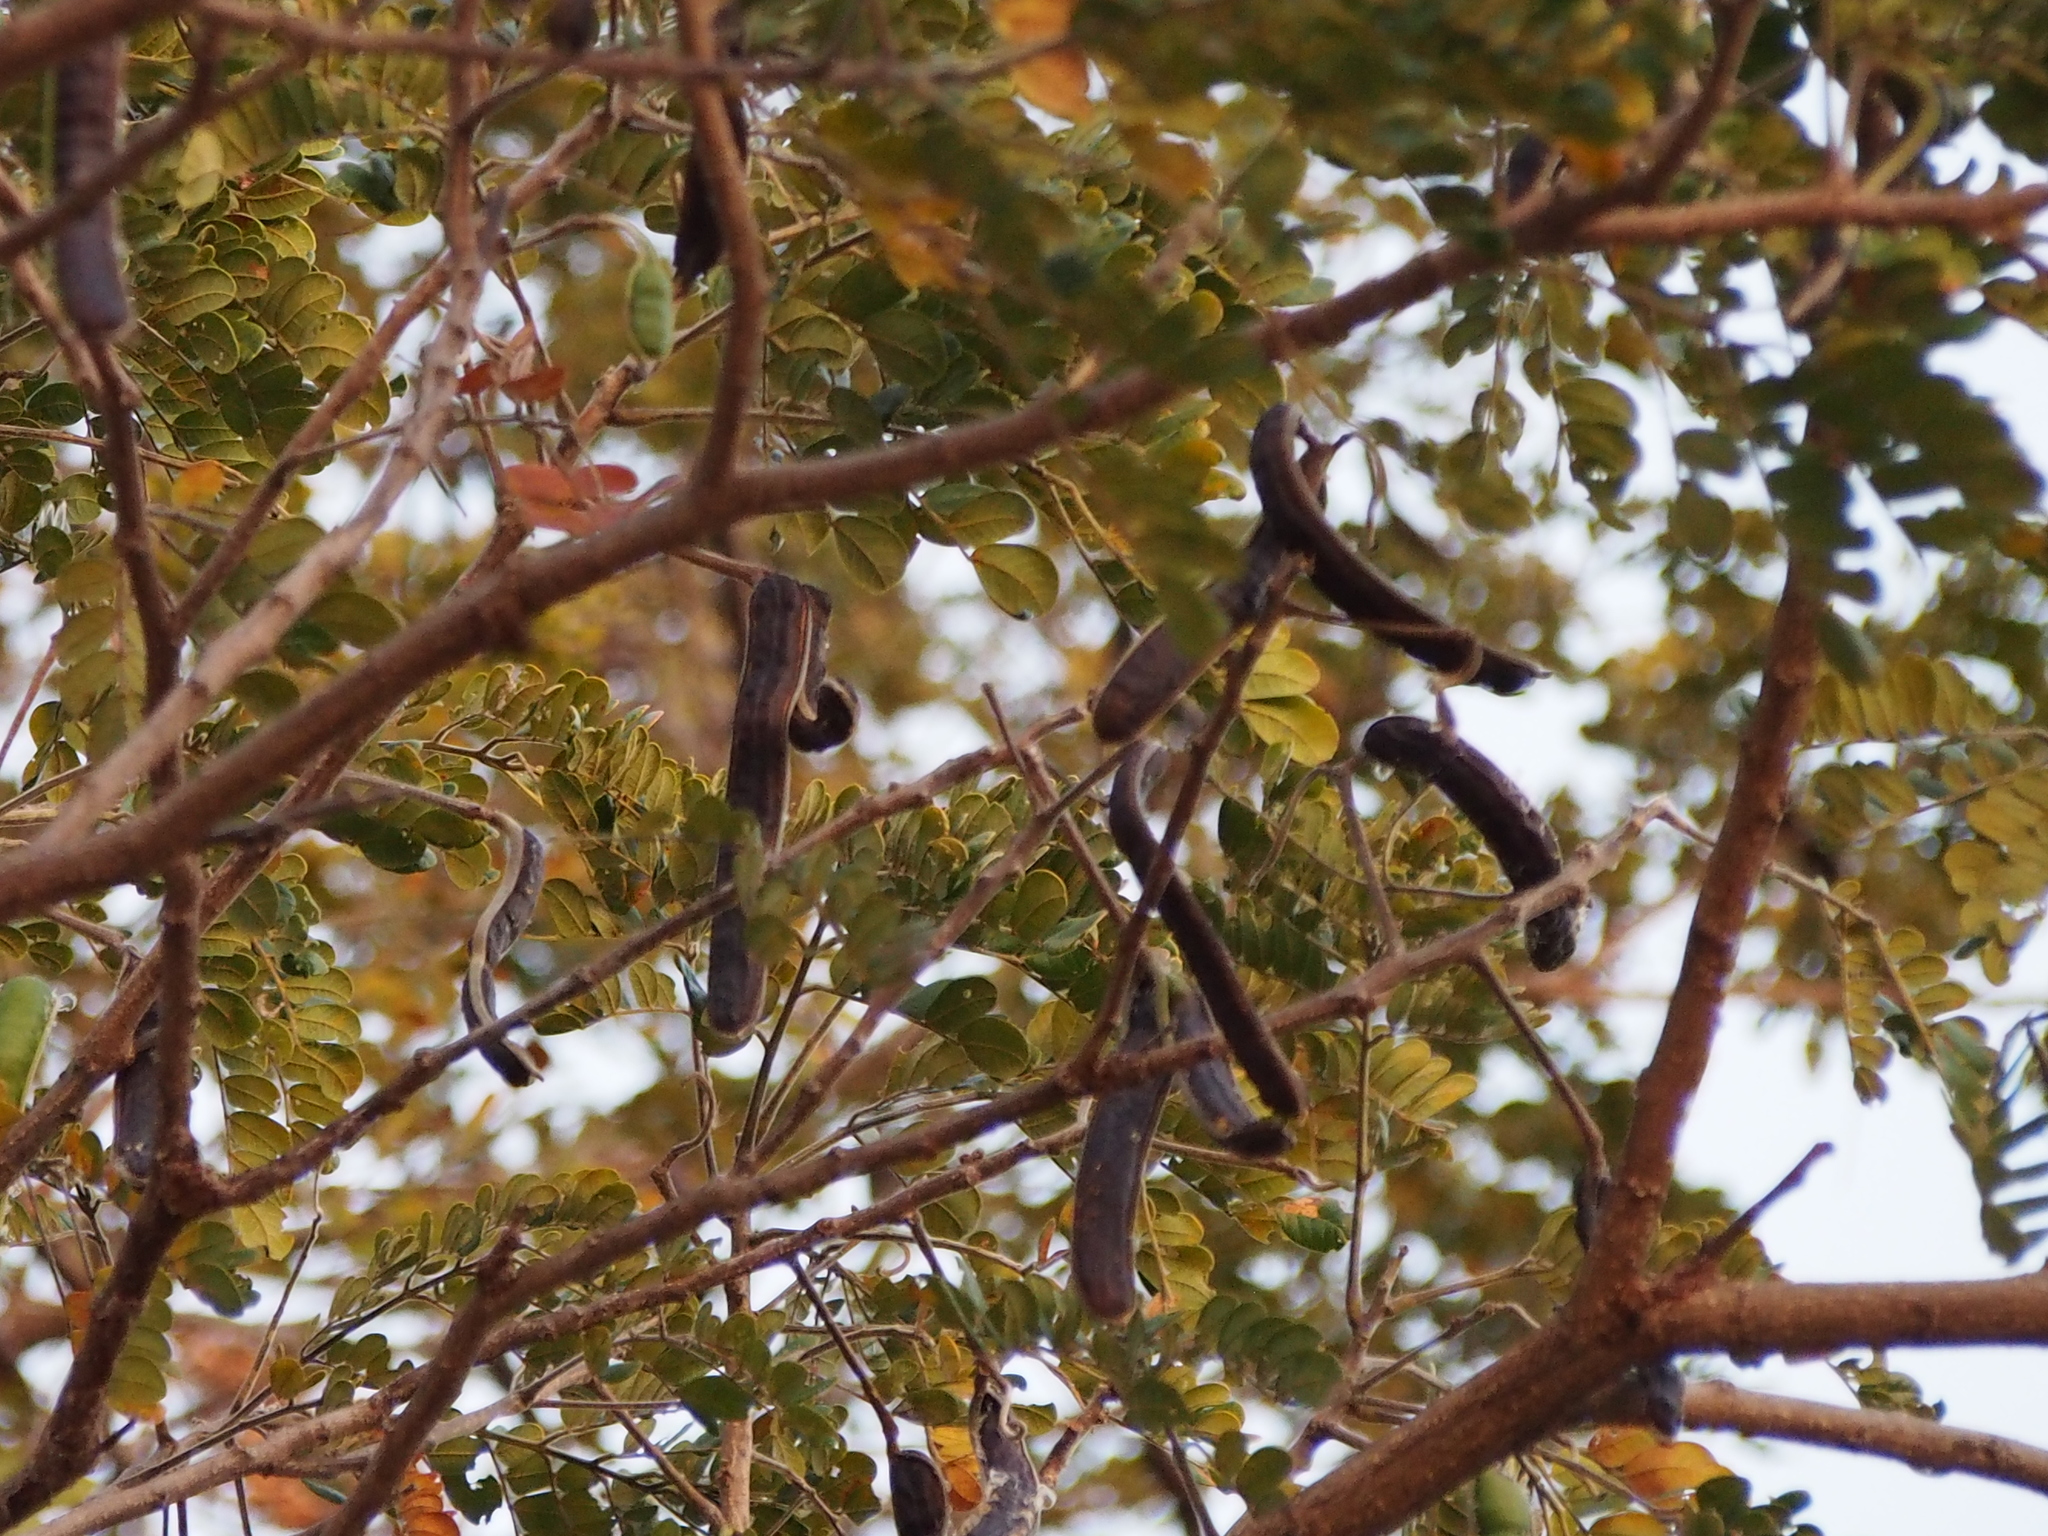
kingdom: Plantae
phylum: Tracheophyta
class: Magnoliopsida
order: Fabales
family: Fabaceae
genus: Samanea
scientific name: Samanea saman
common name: Raintree
